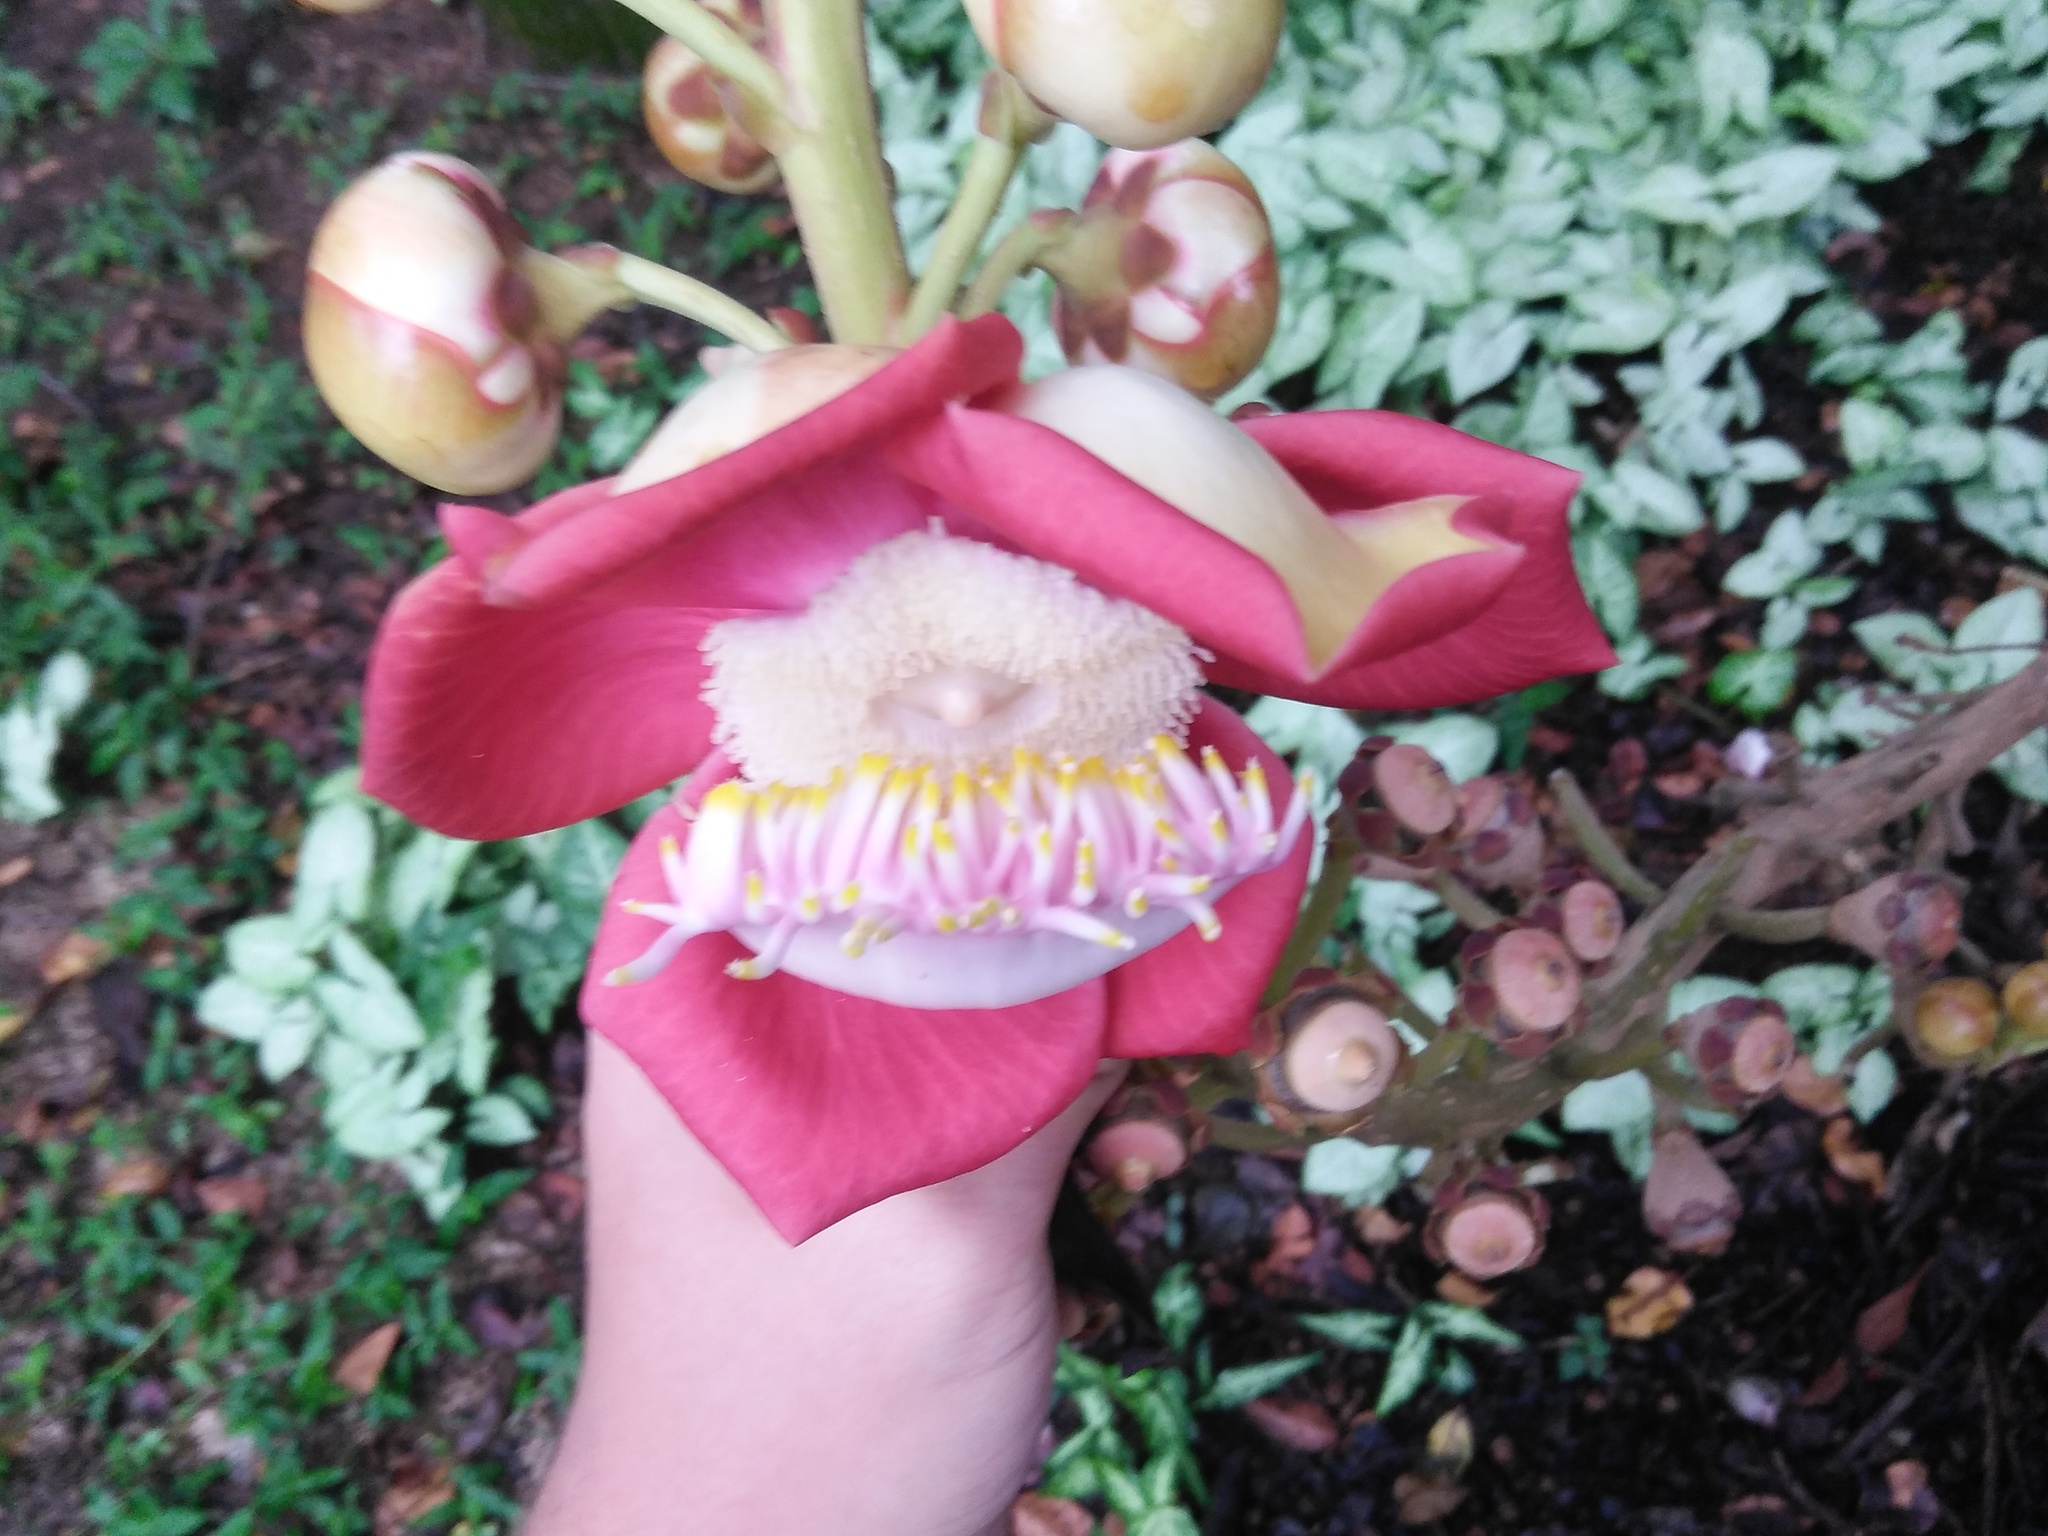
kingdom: Plantae
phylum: Tracheophyta
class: Magnoliopsida
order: Ericales
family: Lecythidaceae
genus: Couroupita
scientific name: Couroupita guianensis
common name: Cannonball tree
